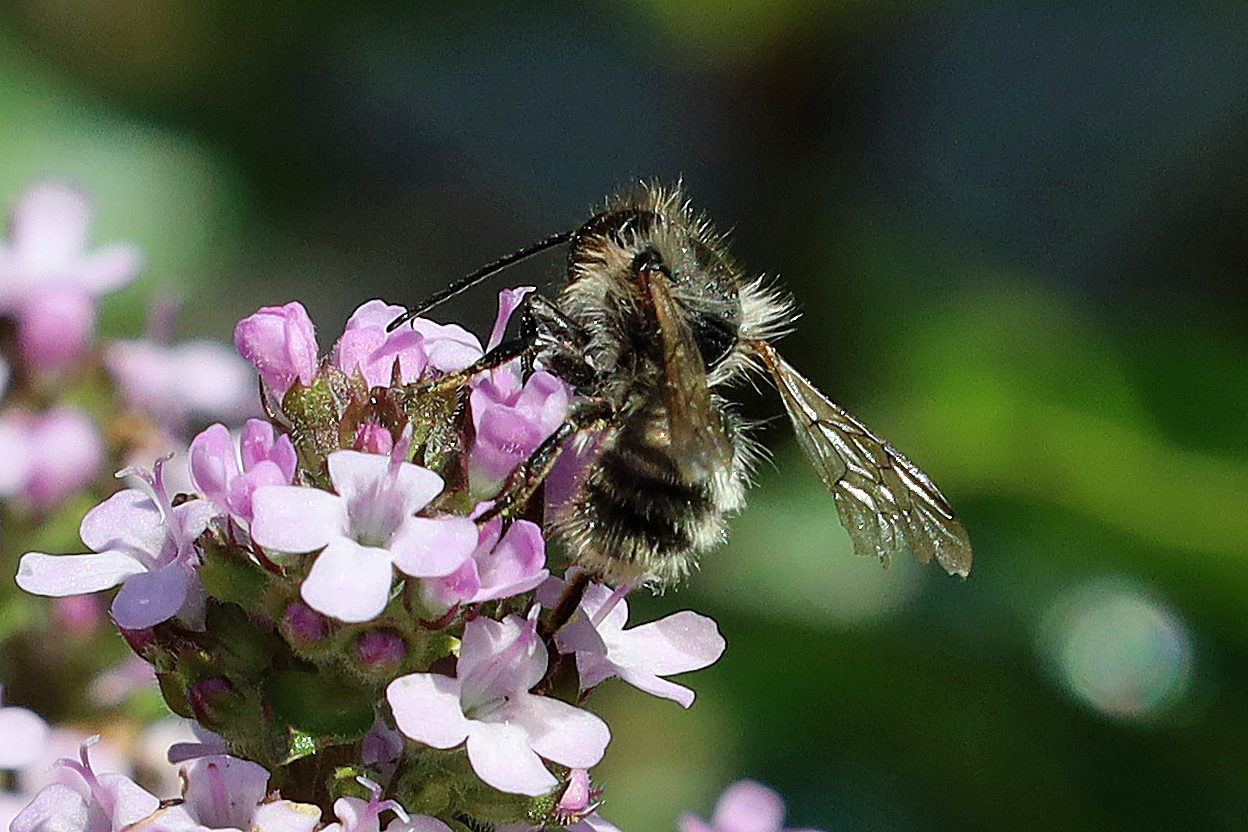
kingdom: Animalia
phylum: Arthropoda
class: Insecta
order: Hymenoptera
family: Megachilidae
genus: Osmia
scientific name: Osmia bicornis
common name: Red mason bee
